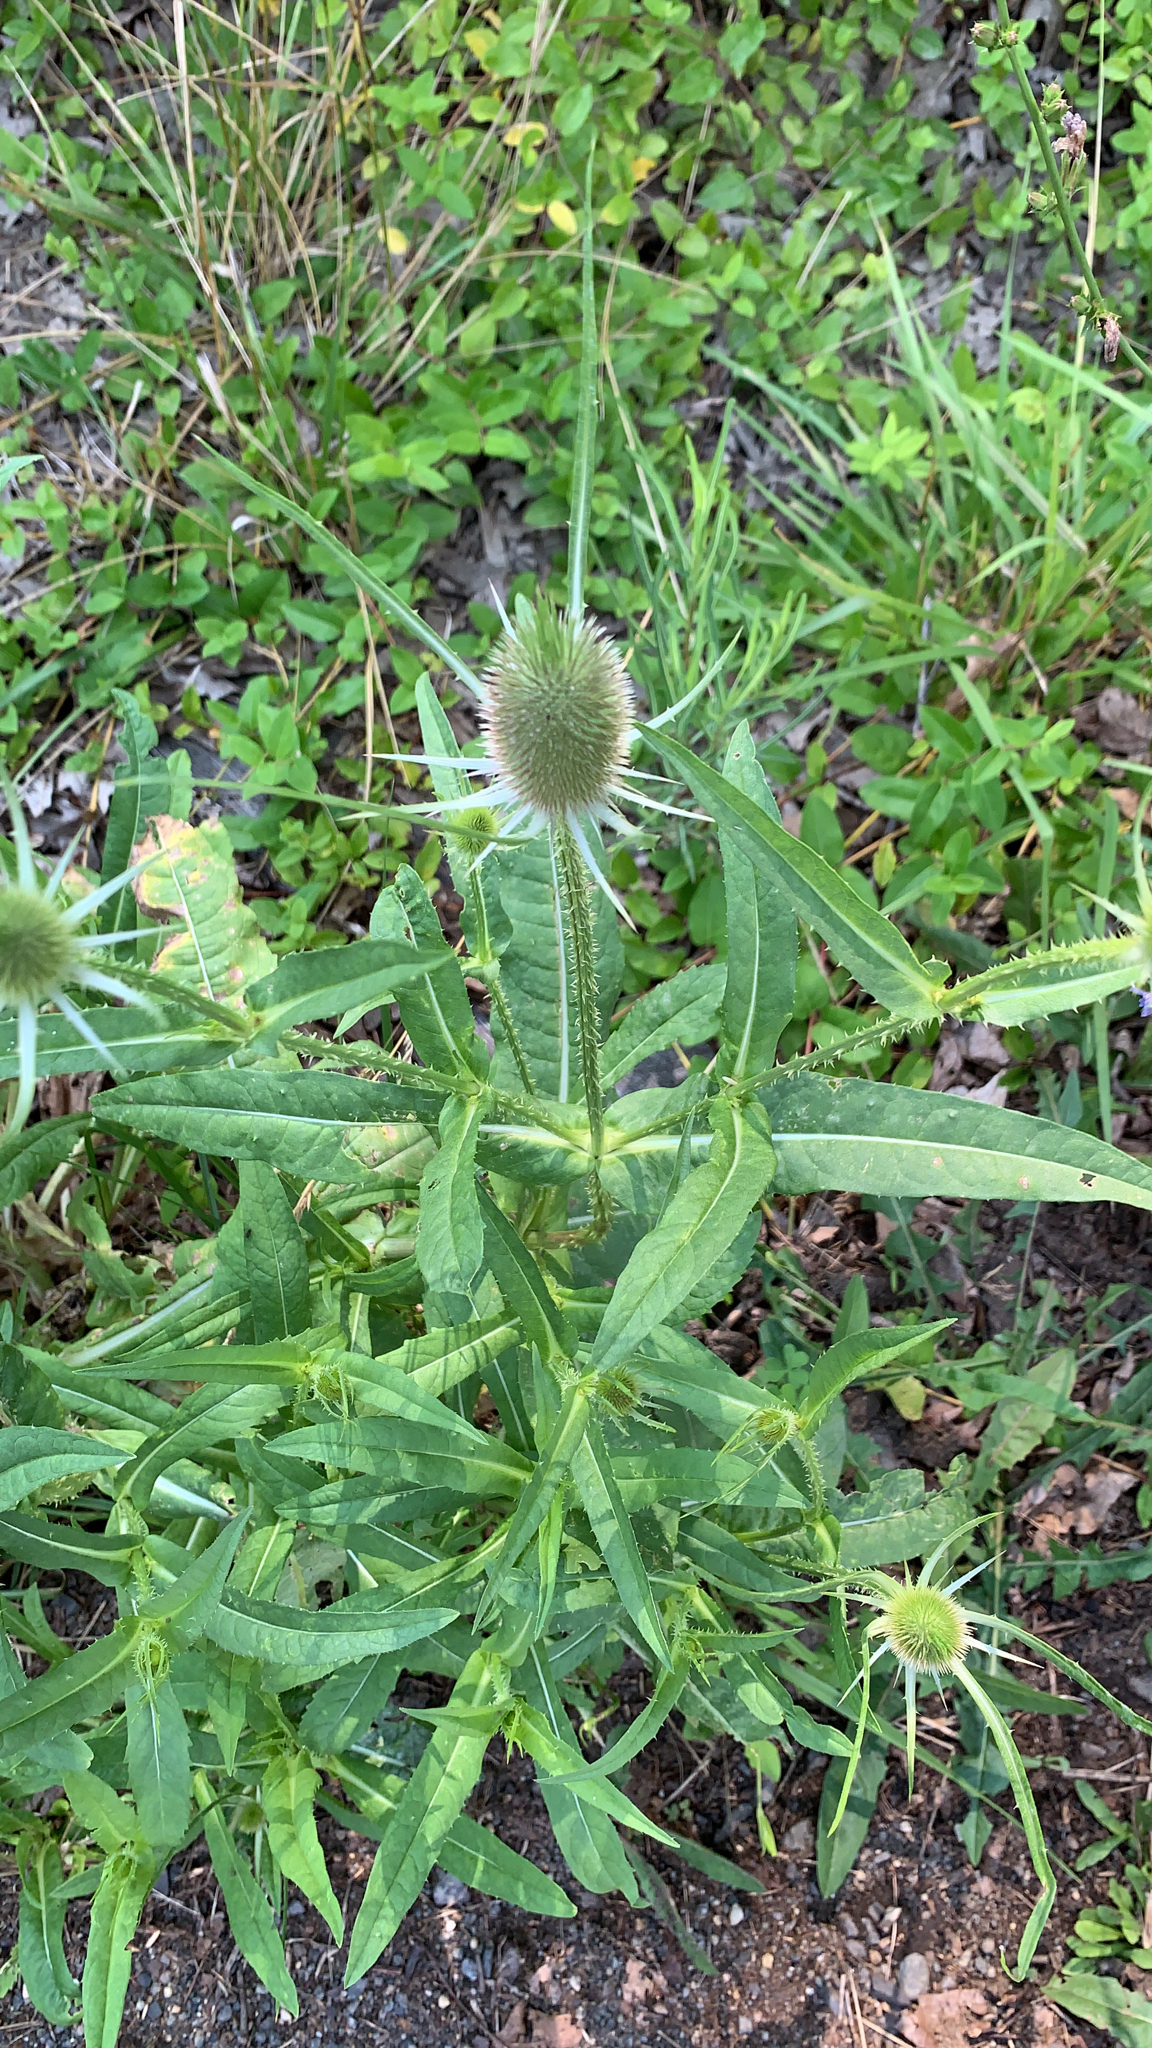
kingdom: Plantae
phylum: Tracheophyta
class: Magnoliopsida
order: Dipsacales
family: Caprifoliaceae
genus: Dipsacus
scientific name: Dipsacus fullonum
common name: Teasel
